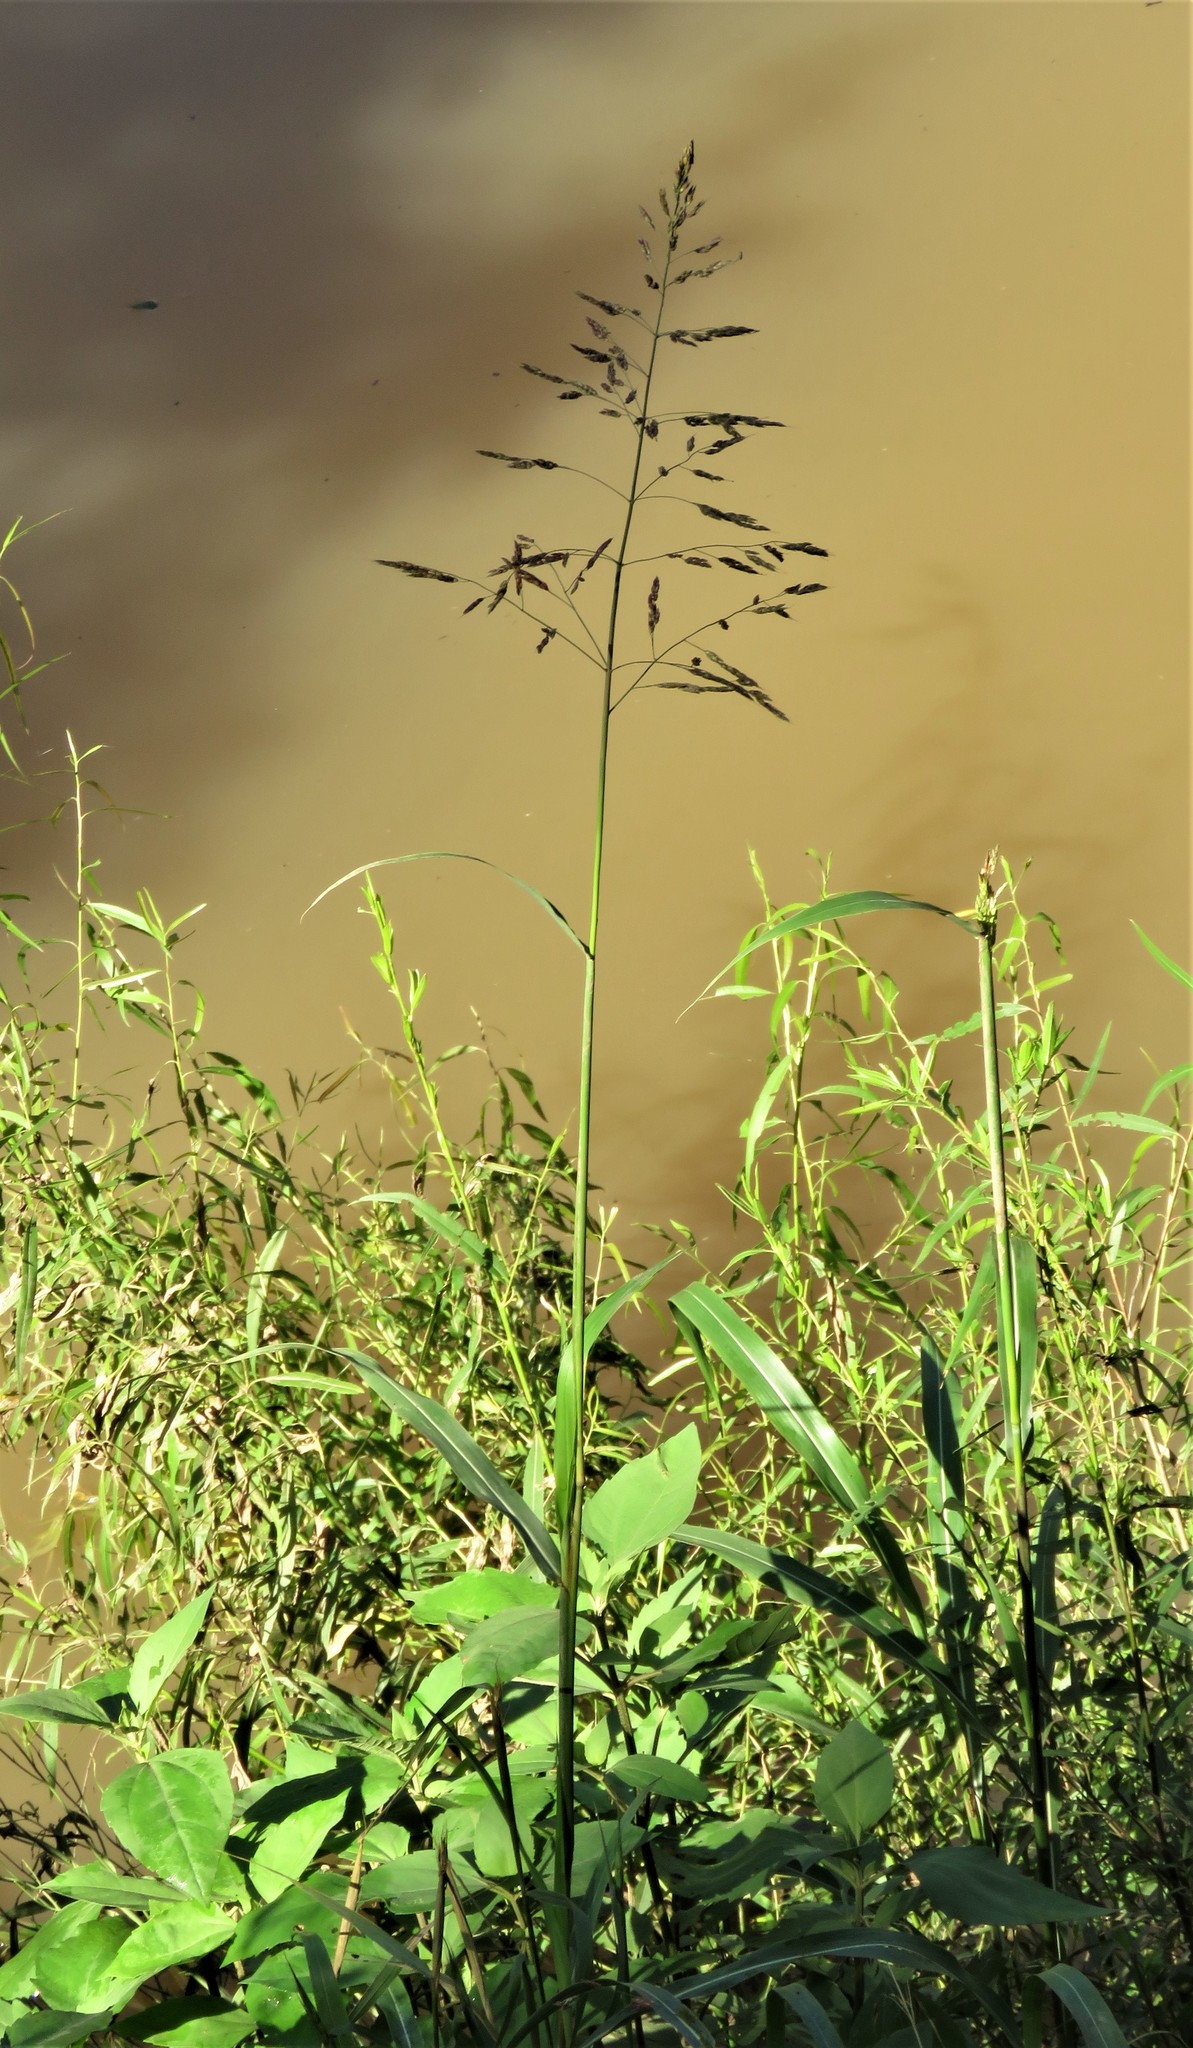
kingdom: Plantae
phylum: Tracheophyta
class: Liliopsida
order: Poales
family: Poaceae
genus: Sorghum
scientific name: Sorghum halepense
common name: Johnson-grass
